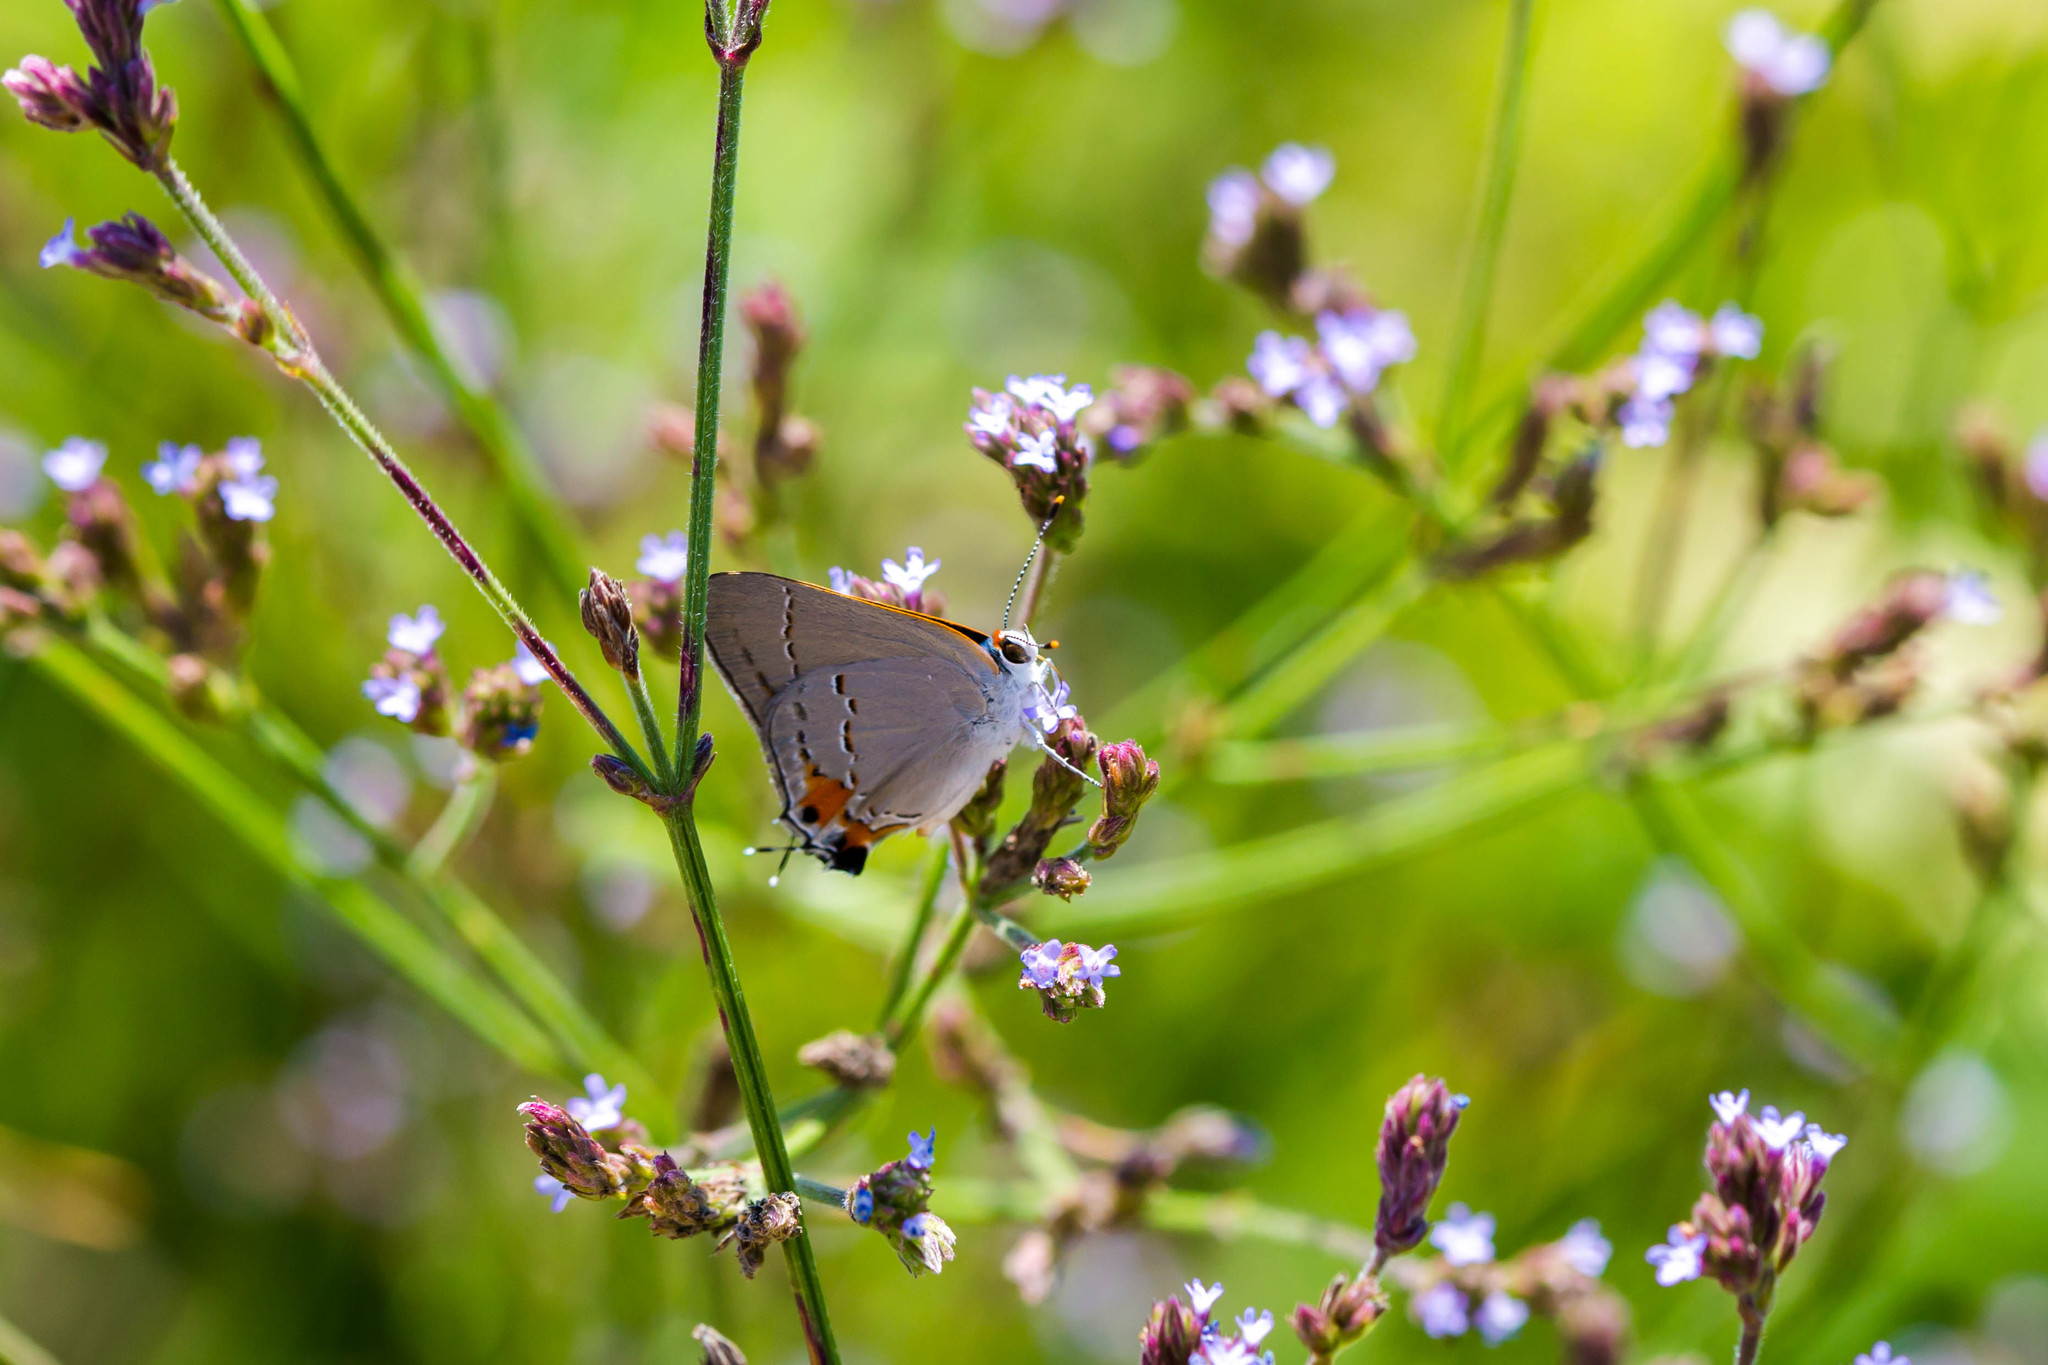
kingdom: Animalia
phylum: Arthropoda
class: Insecta
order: Lepidoptera
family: Lycaenidae
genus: Strymon
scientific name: Strymon melinus
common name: Gray hairstreak
